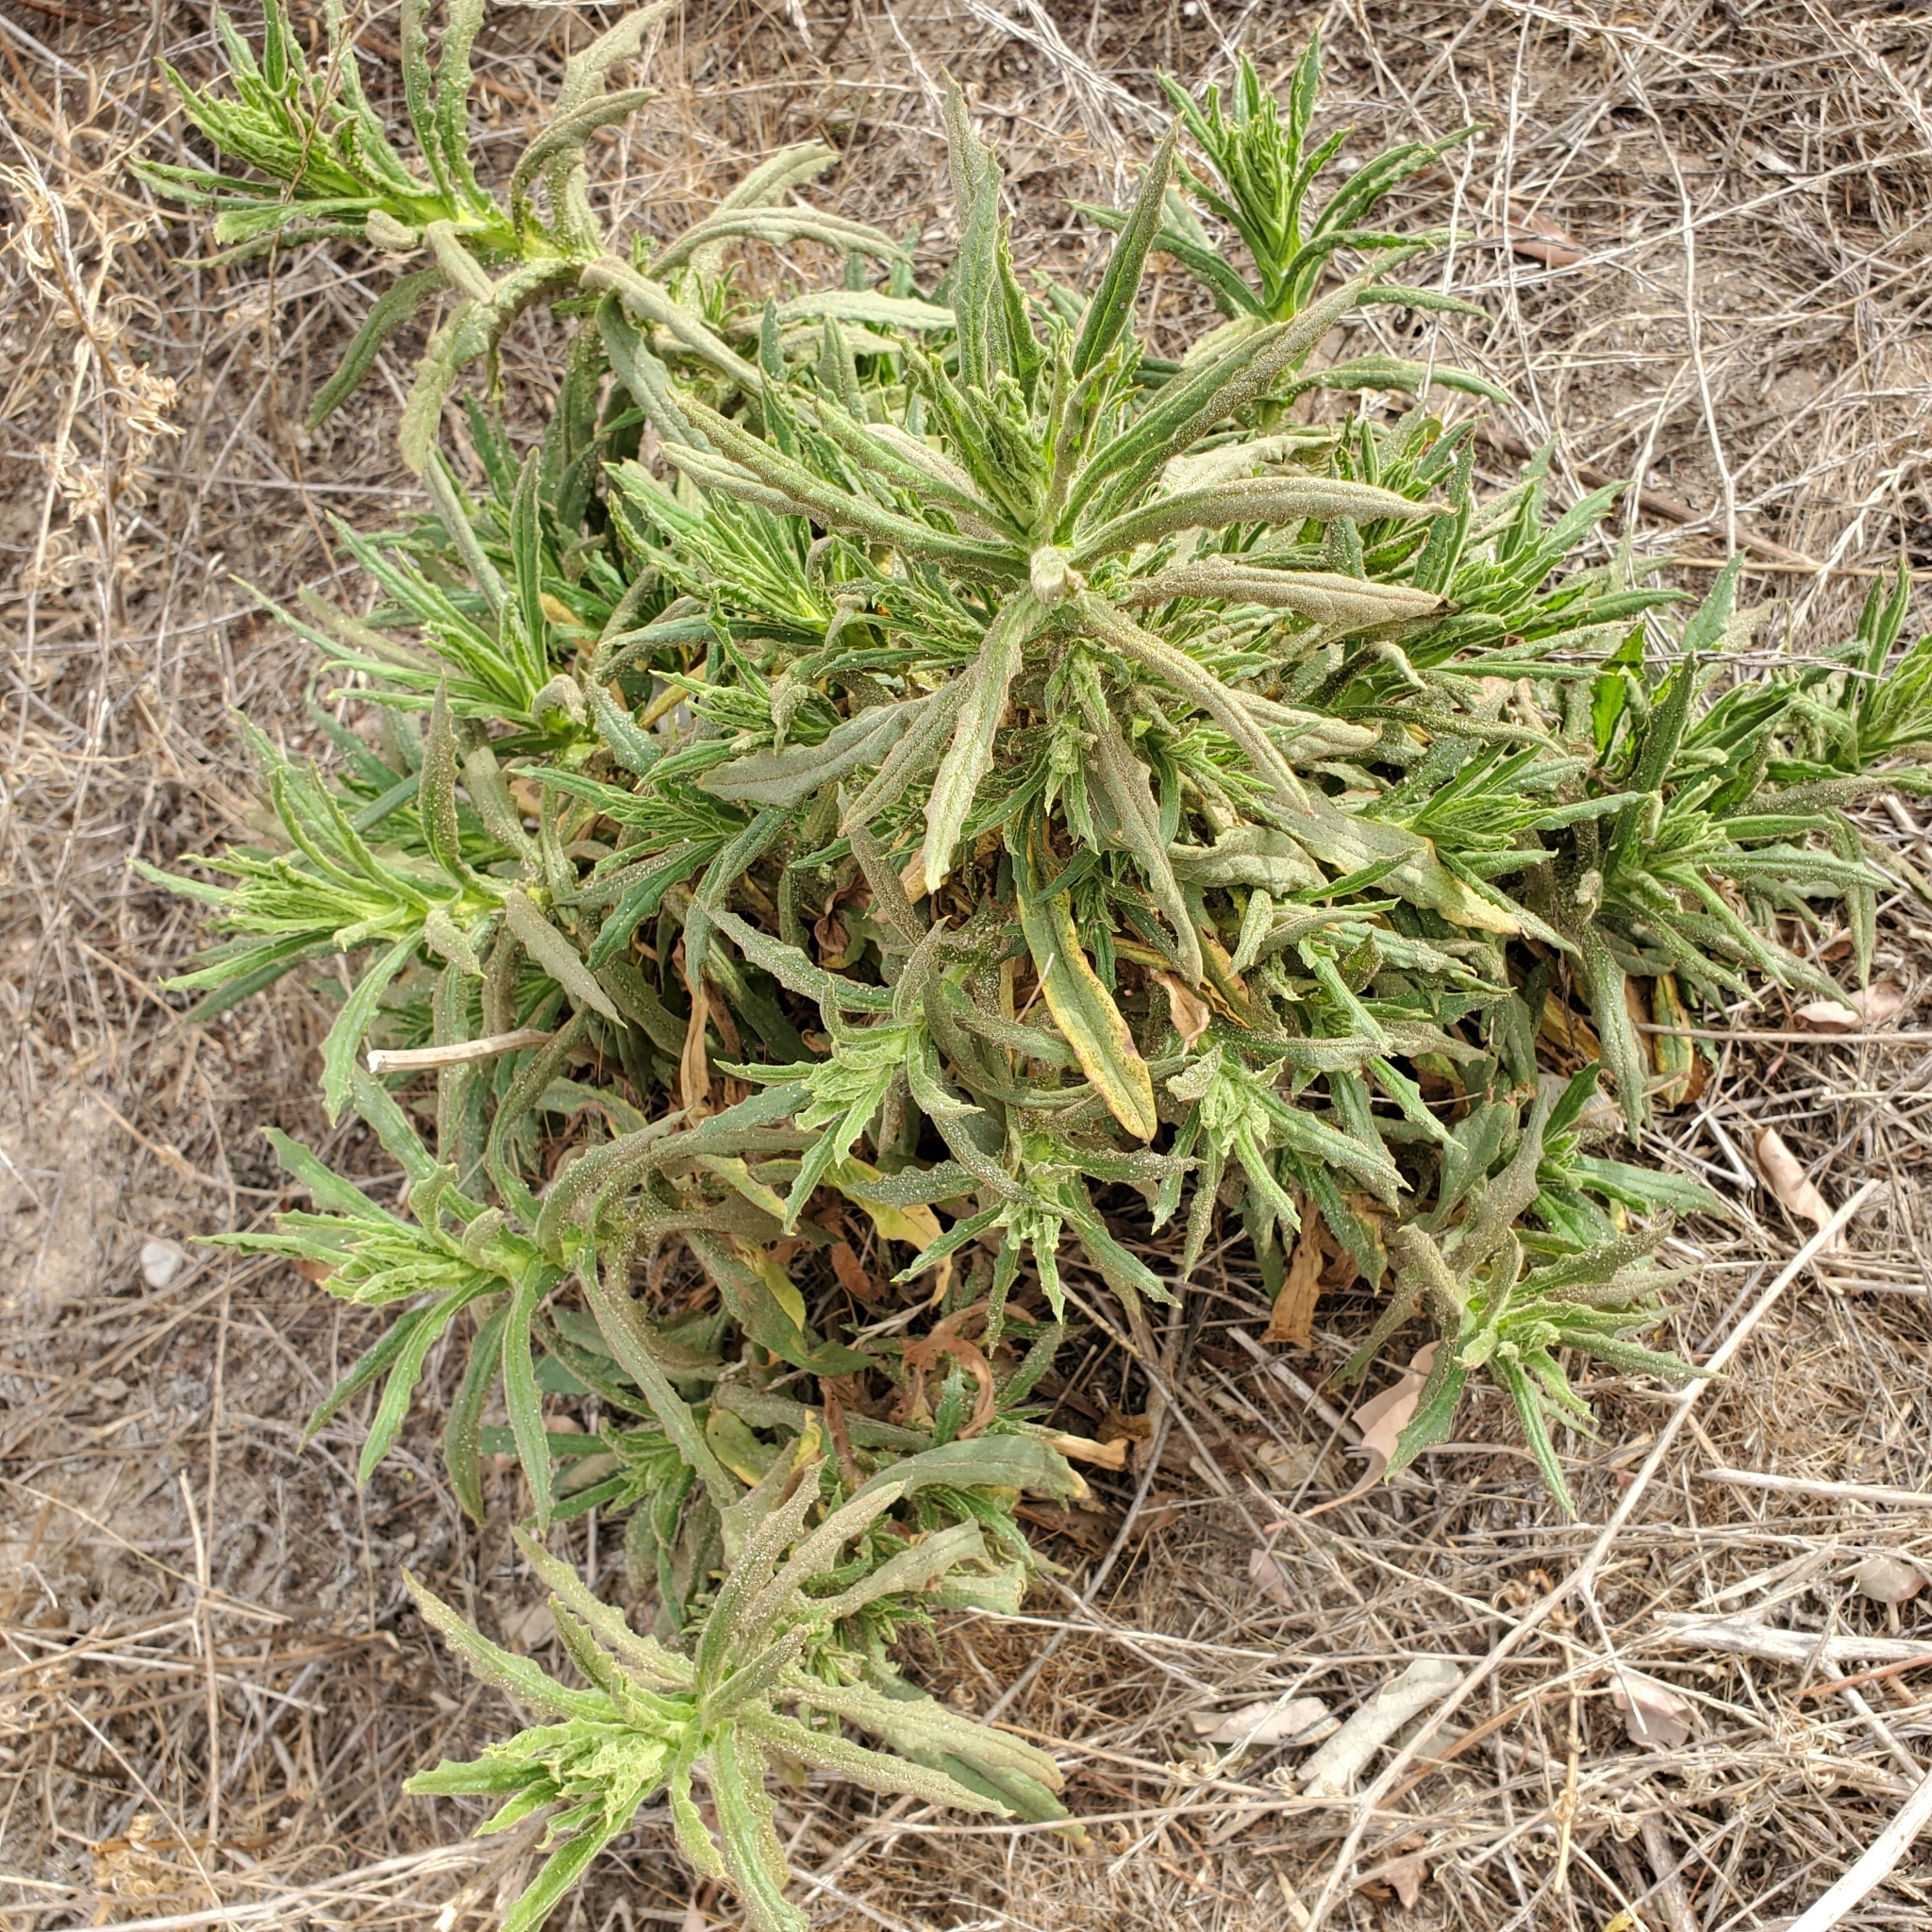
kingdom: Plantae
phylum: Tracheophyta
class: Magnoliopsida
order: Asterales
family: Asteraceae
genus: Pseudognaphalium
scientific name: Pseudognaphalium californicum
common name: California rabbit-tobacco
